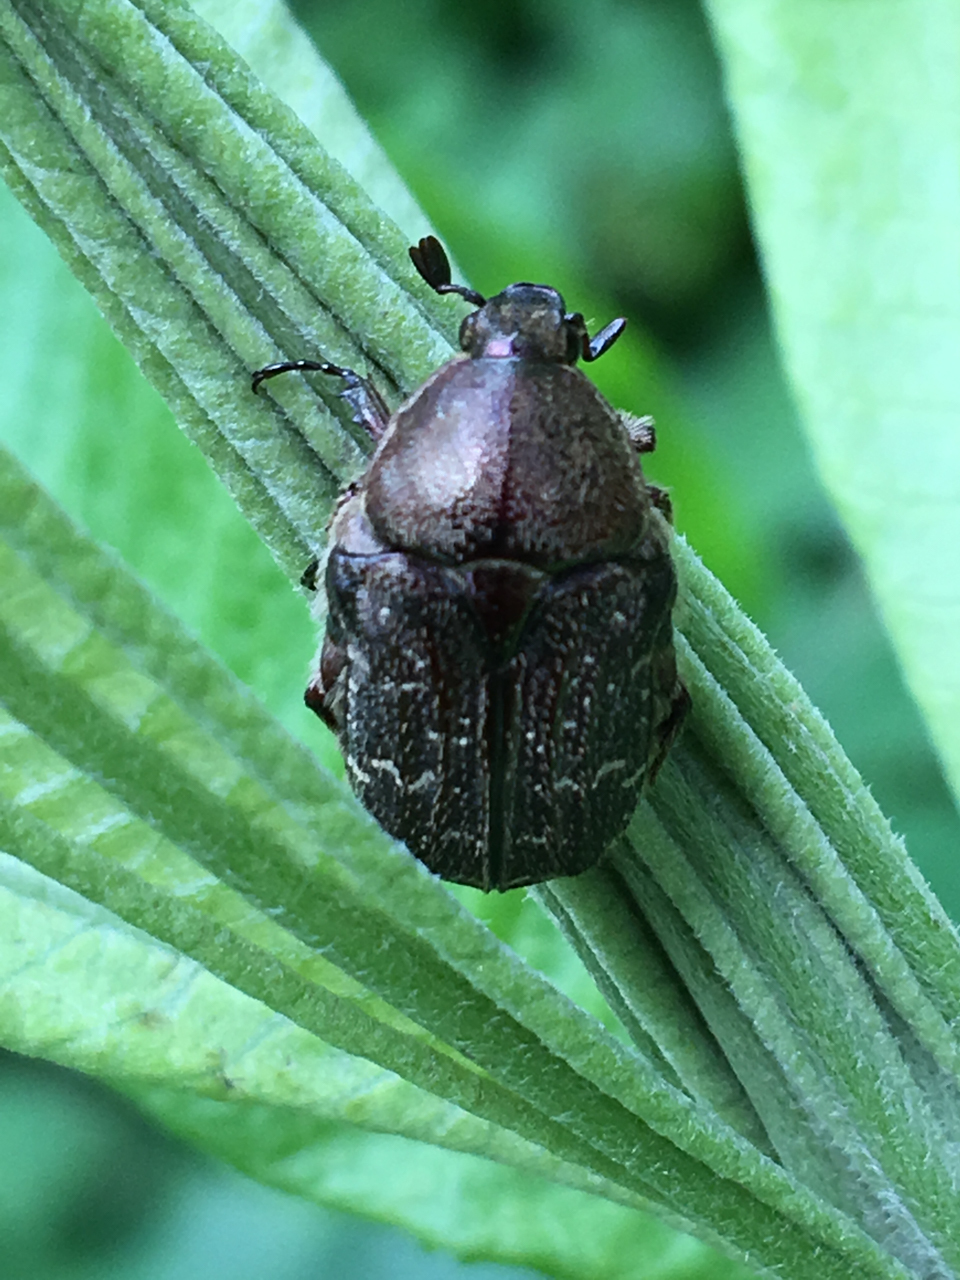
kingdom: Animalia
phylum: Arthropoda
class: Insecta
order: Coleoptera
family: Scarabaeidae
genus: Euphoria
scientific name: Euphoria sepulcralis
